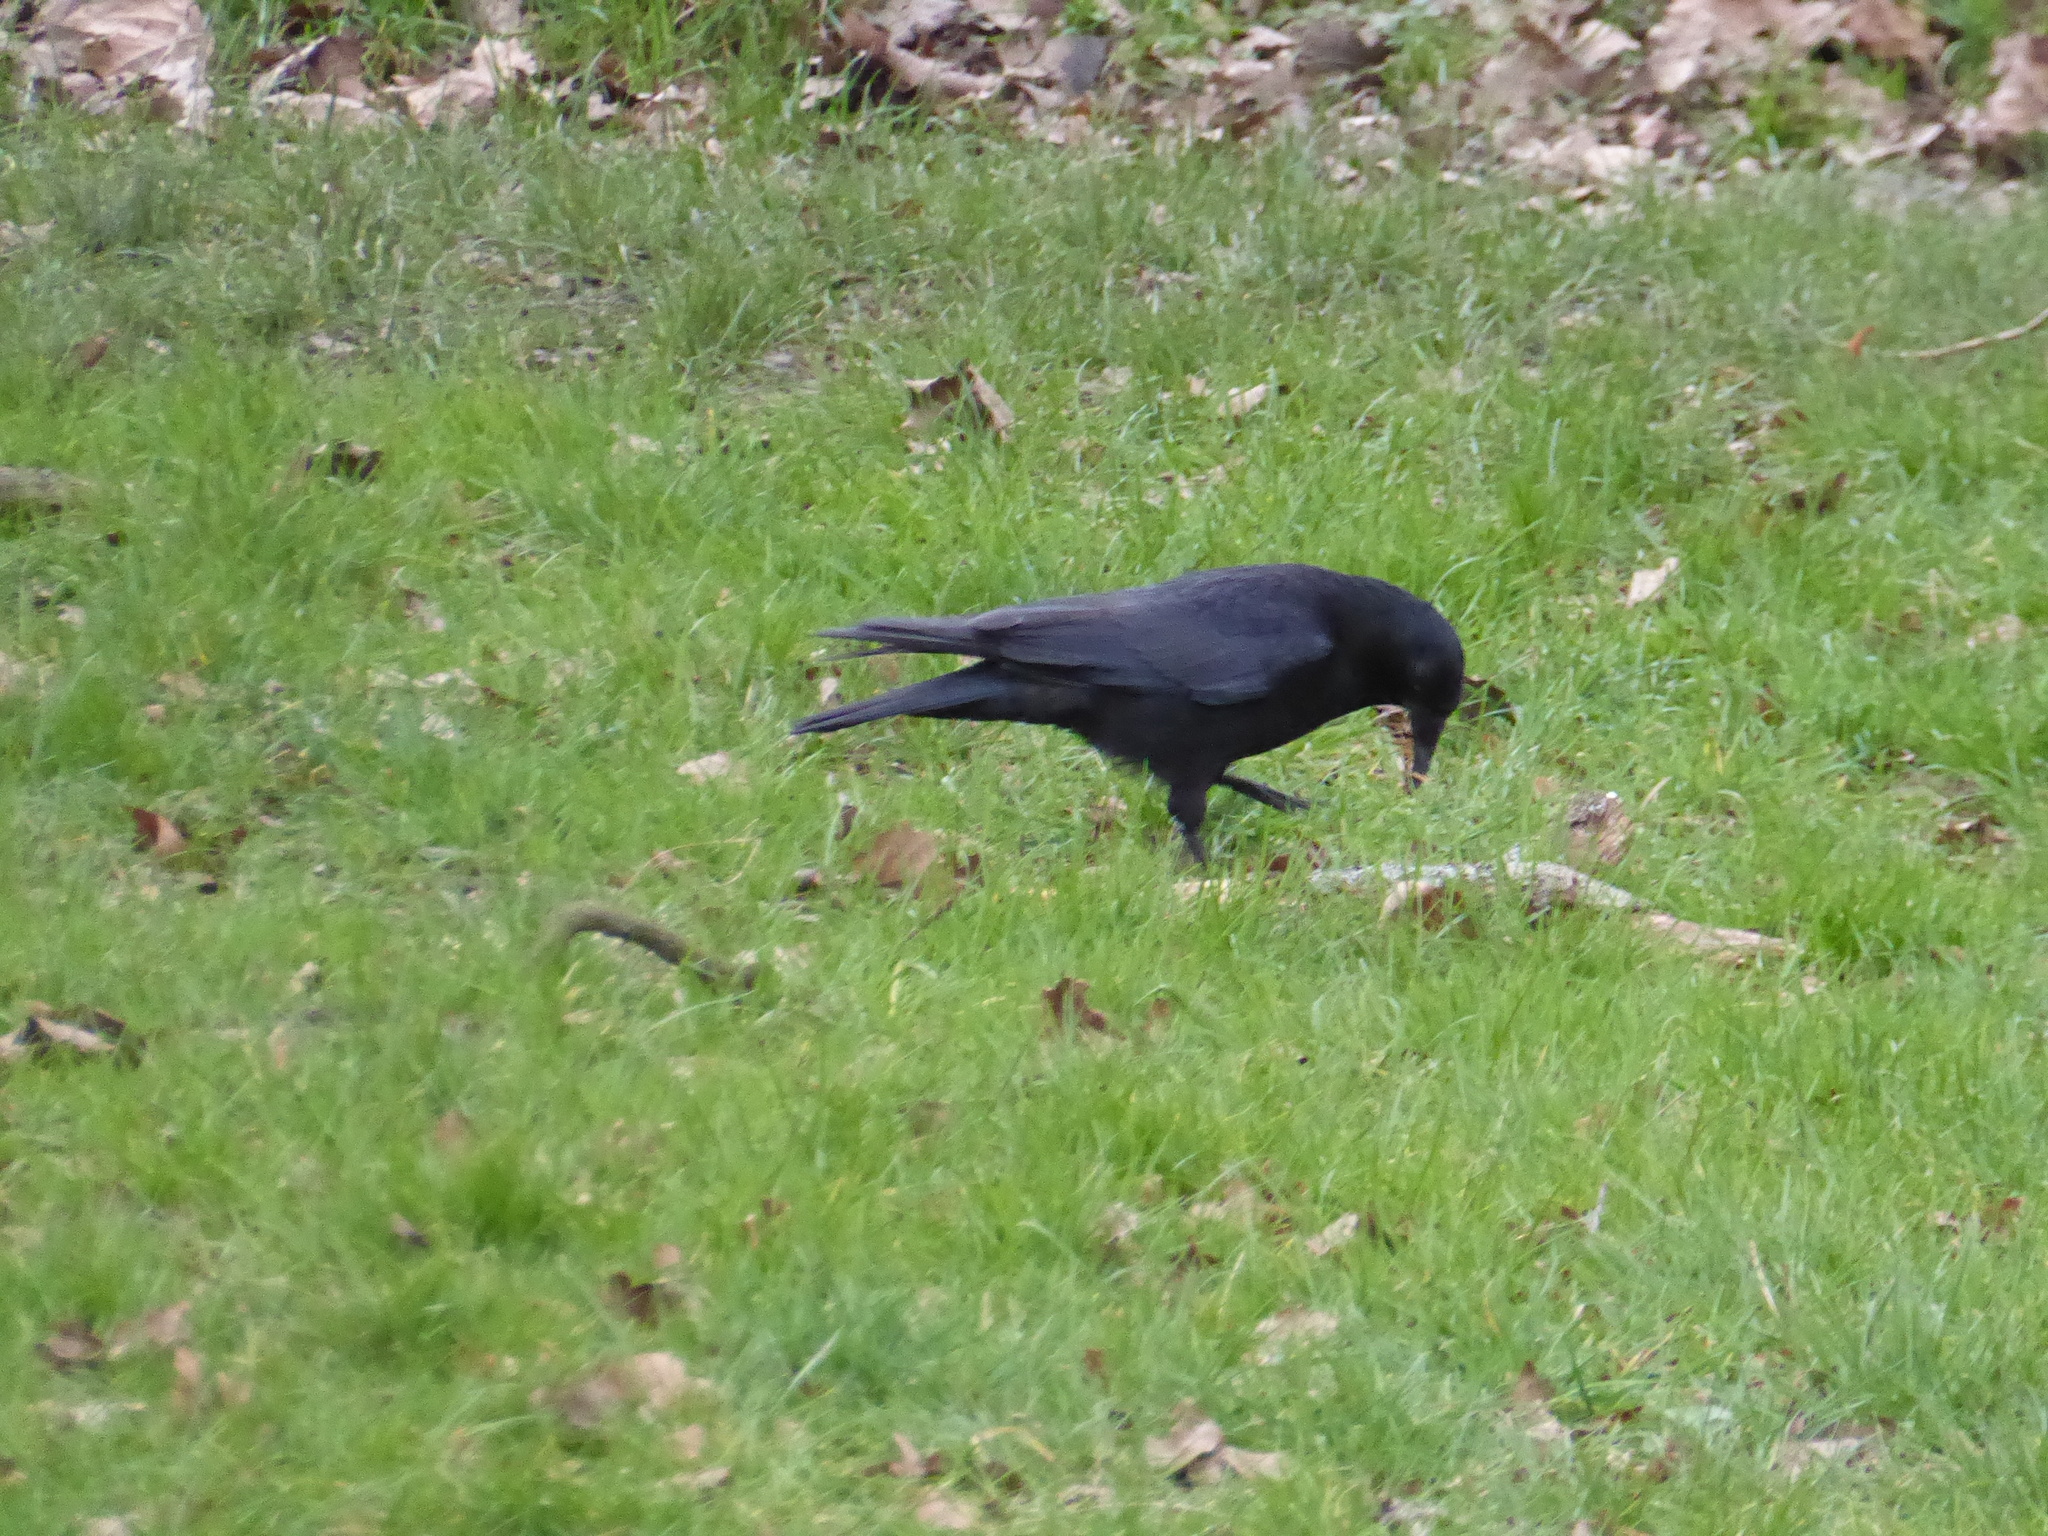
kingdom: Animalia
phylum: Chordata
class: Aves
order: Passeriformes
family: Corvidae
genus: Corvus
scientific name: Corvus corone
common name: Carrion crow
